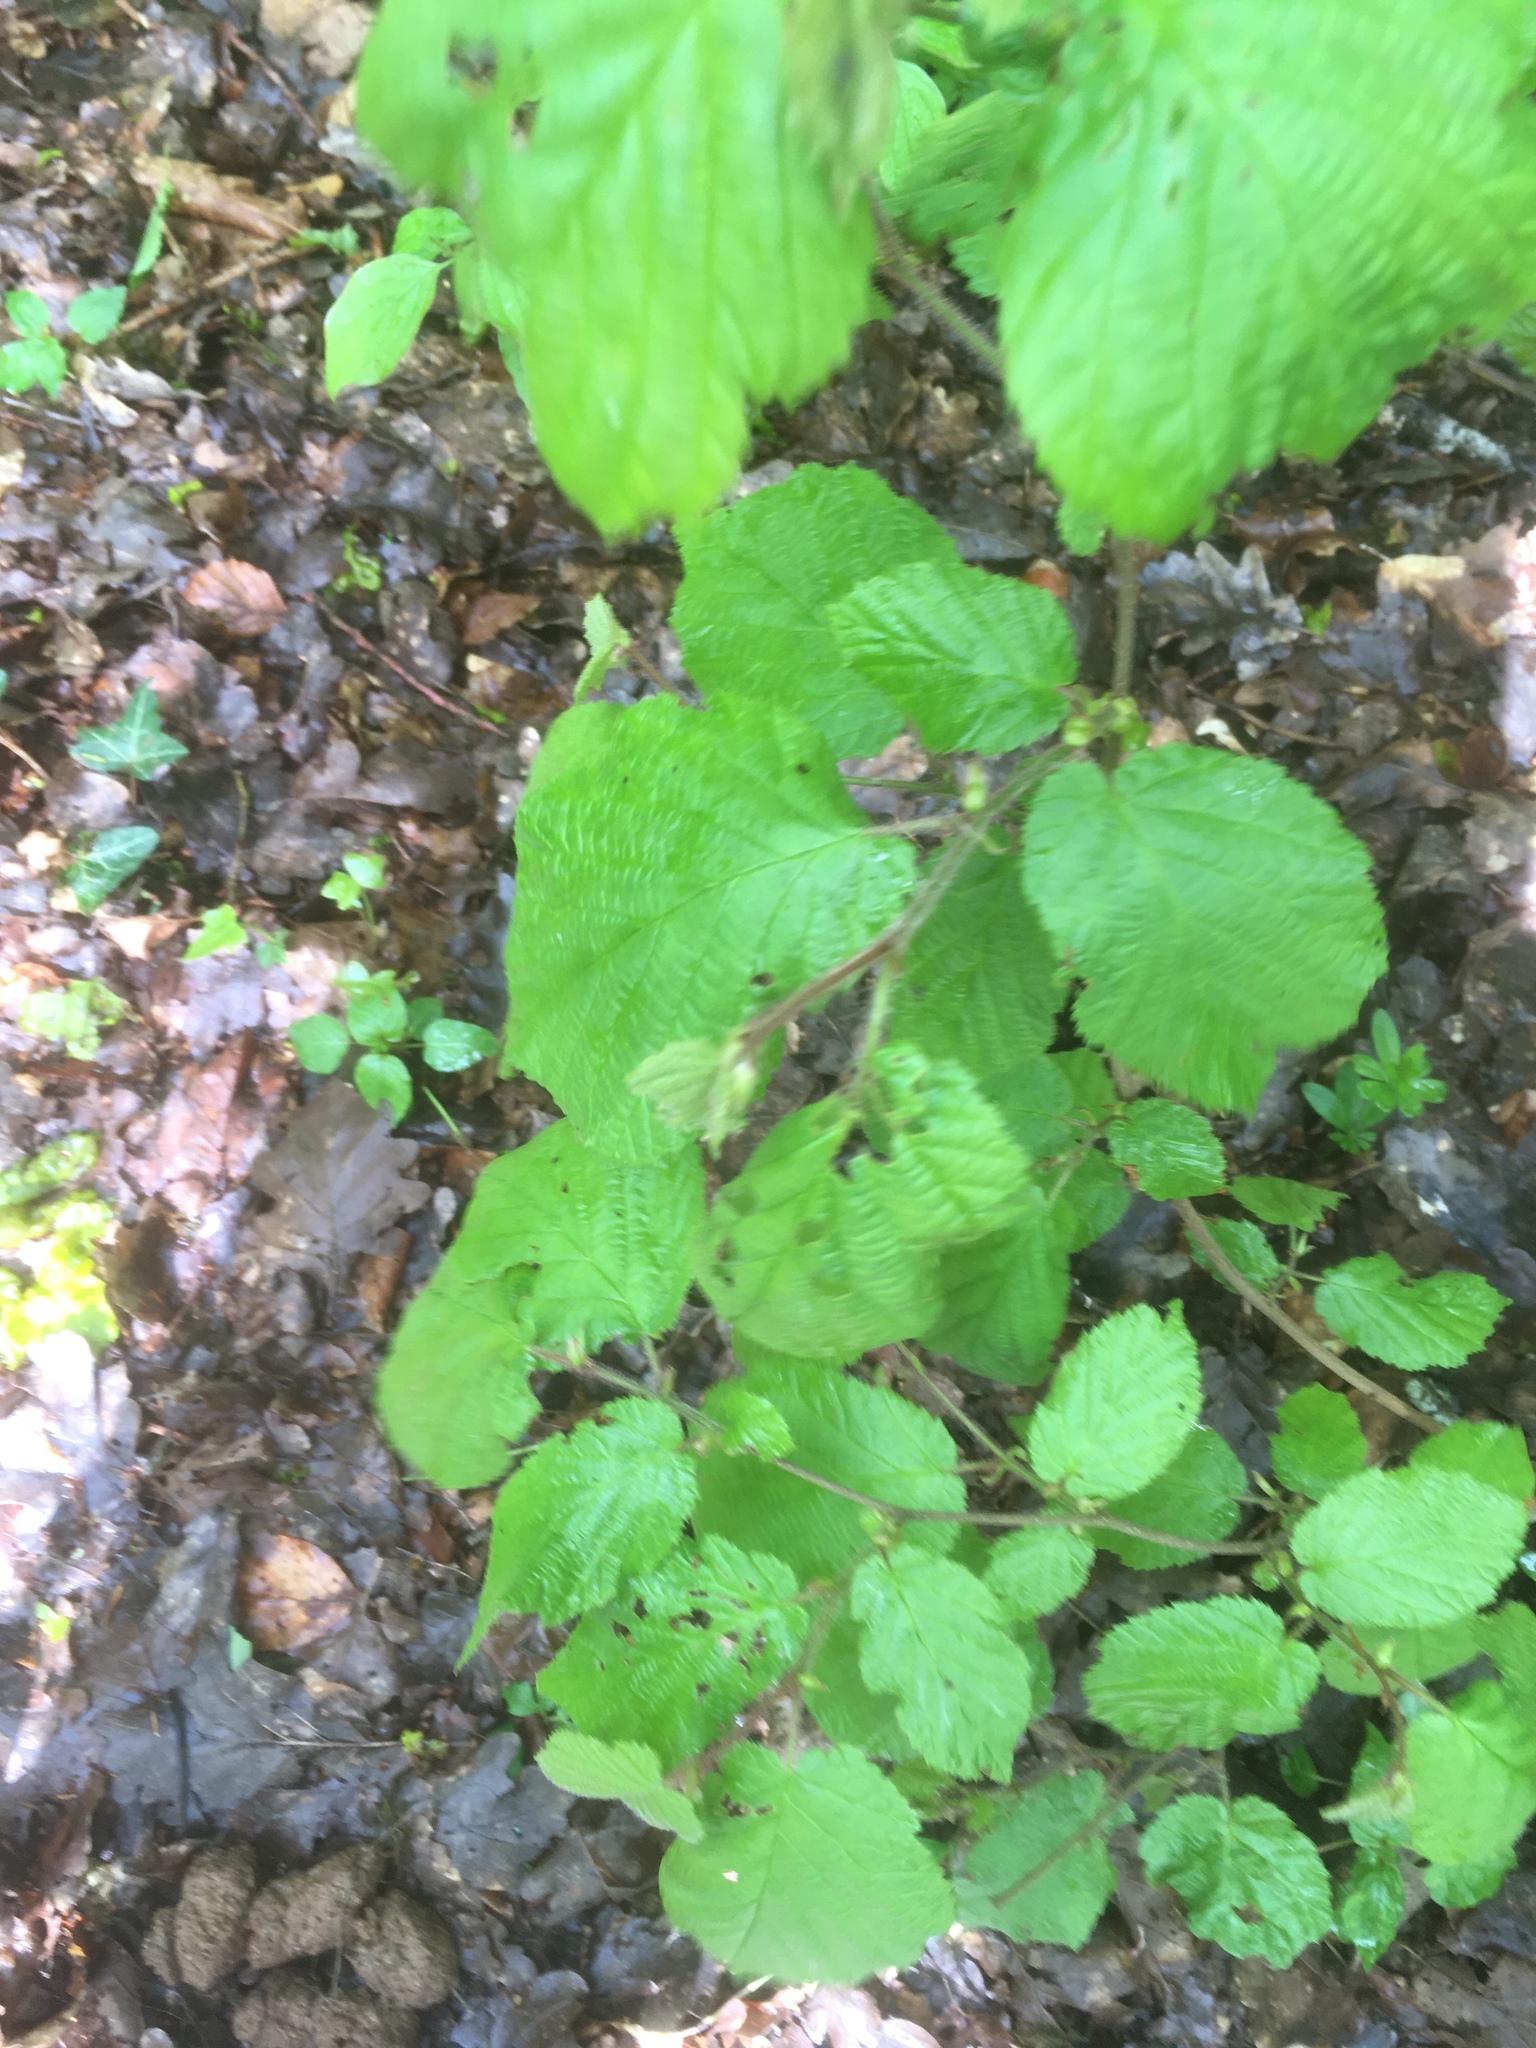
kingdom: Plantae
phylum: Tracheophyta
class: Magnoliopsida
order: Fagales
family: Betulaceae
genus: Corylus
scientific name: Corylus avellana
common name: European hazel
